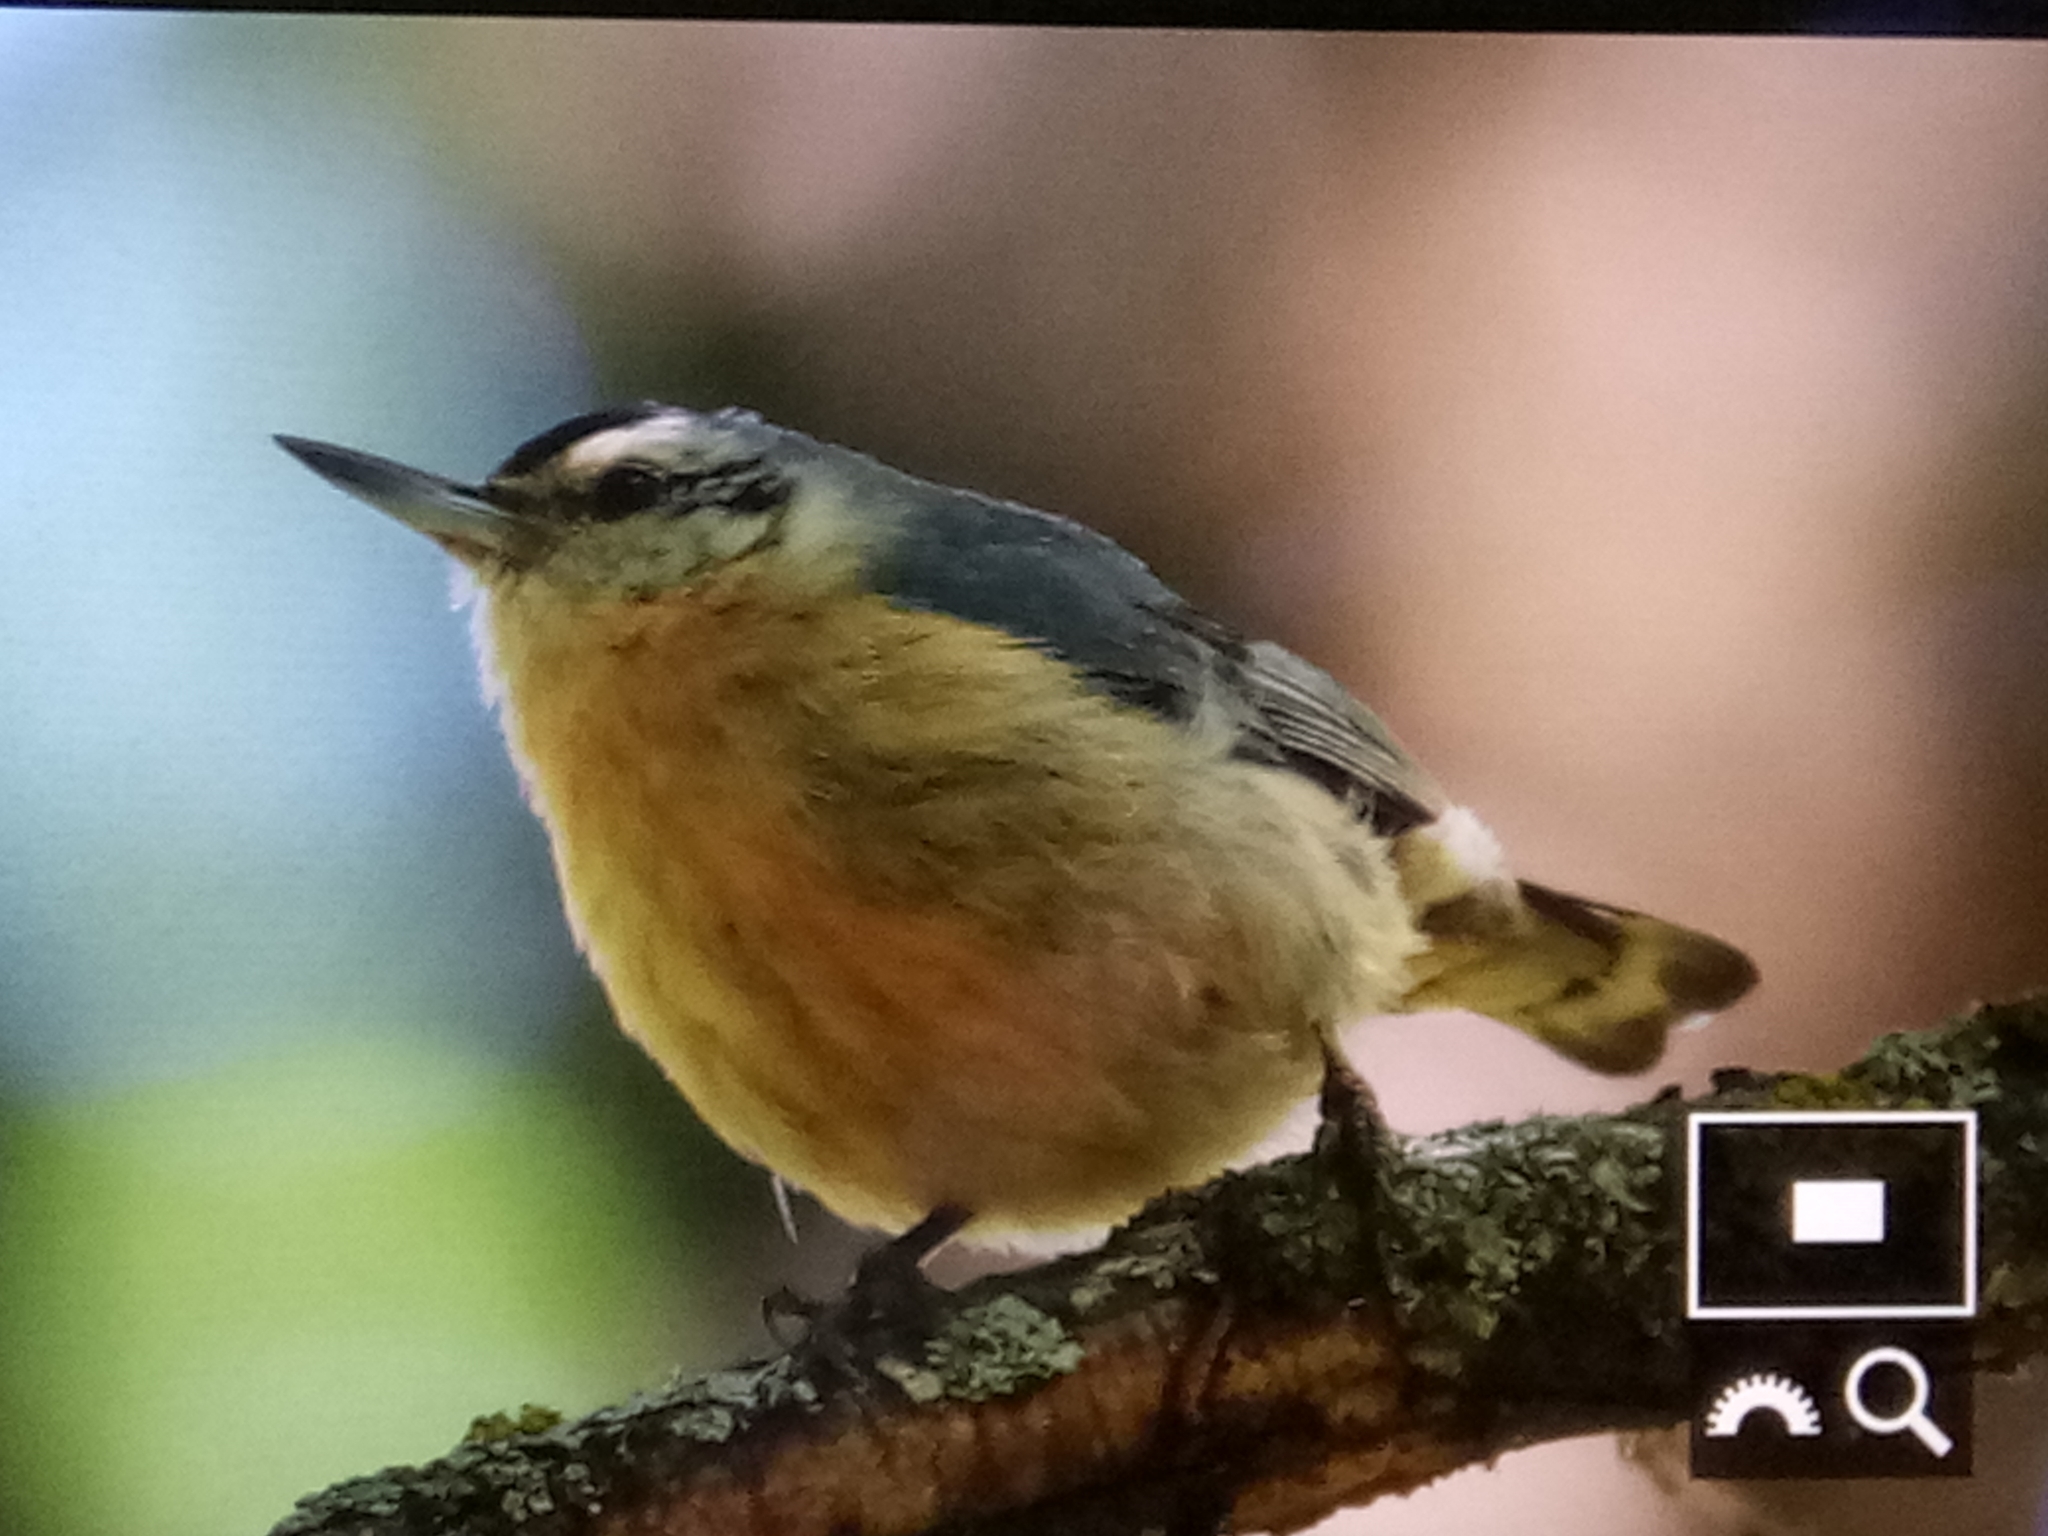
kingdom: Animalia
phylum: Chordata
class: Aves
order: Passeriformes
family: Sittidae
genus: Sitta
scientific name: Sitta ledanti
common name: Algerian nuthatch
